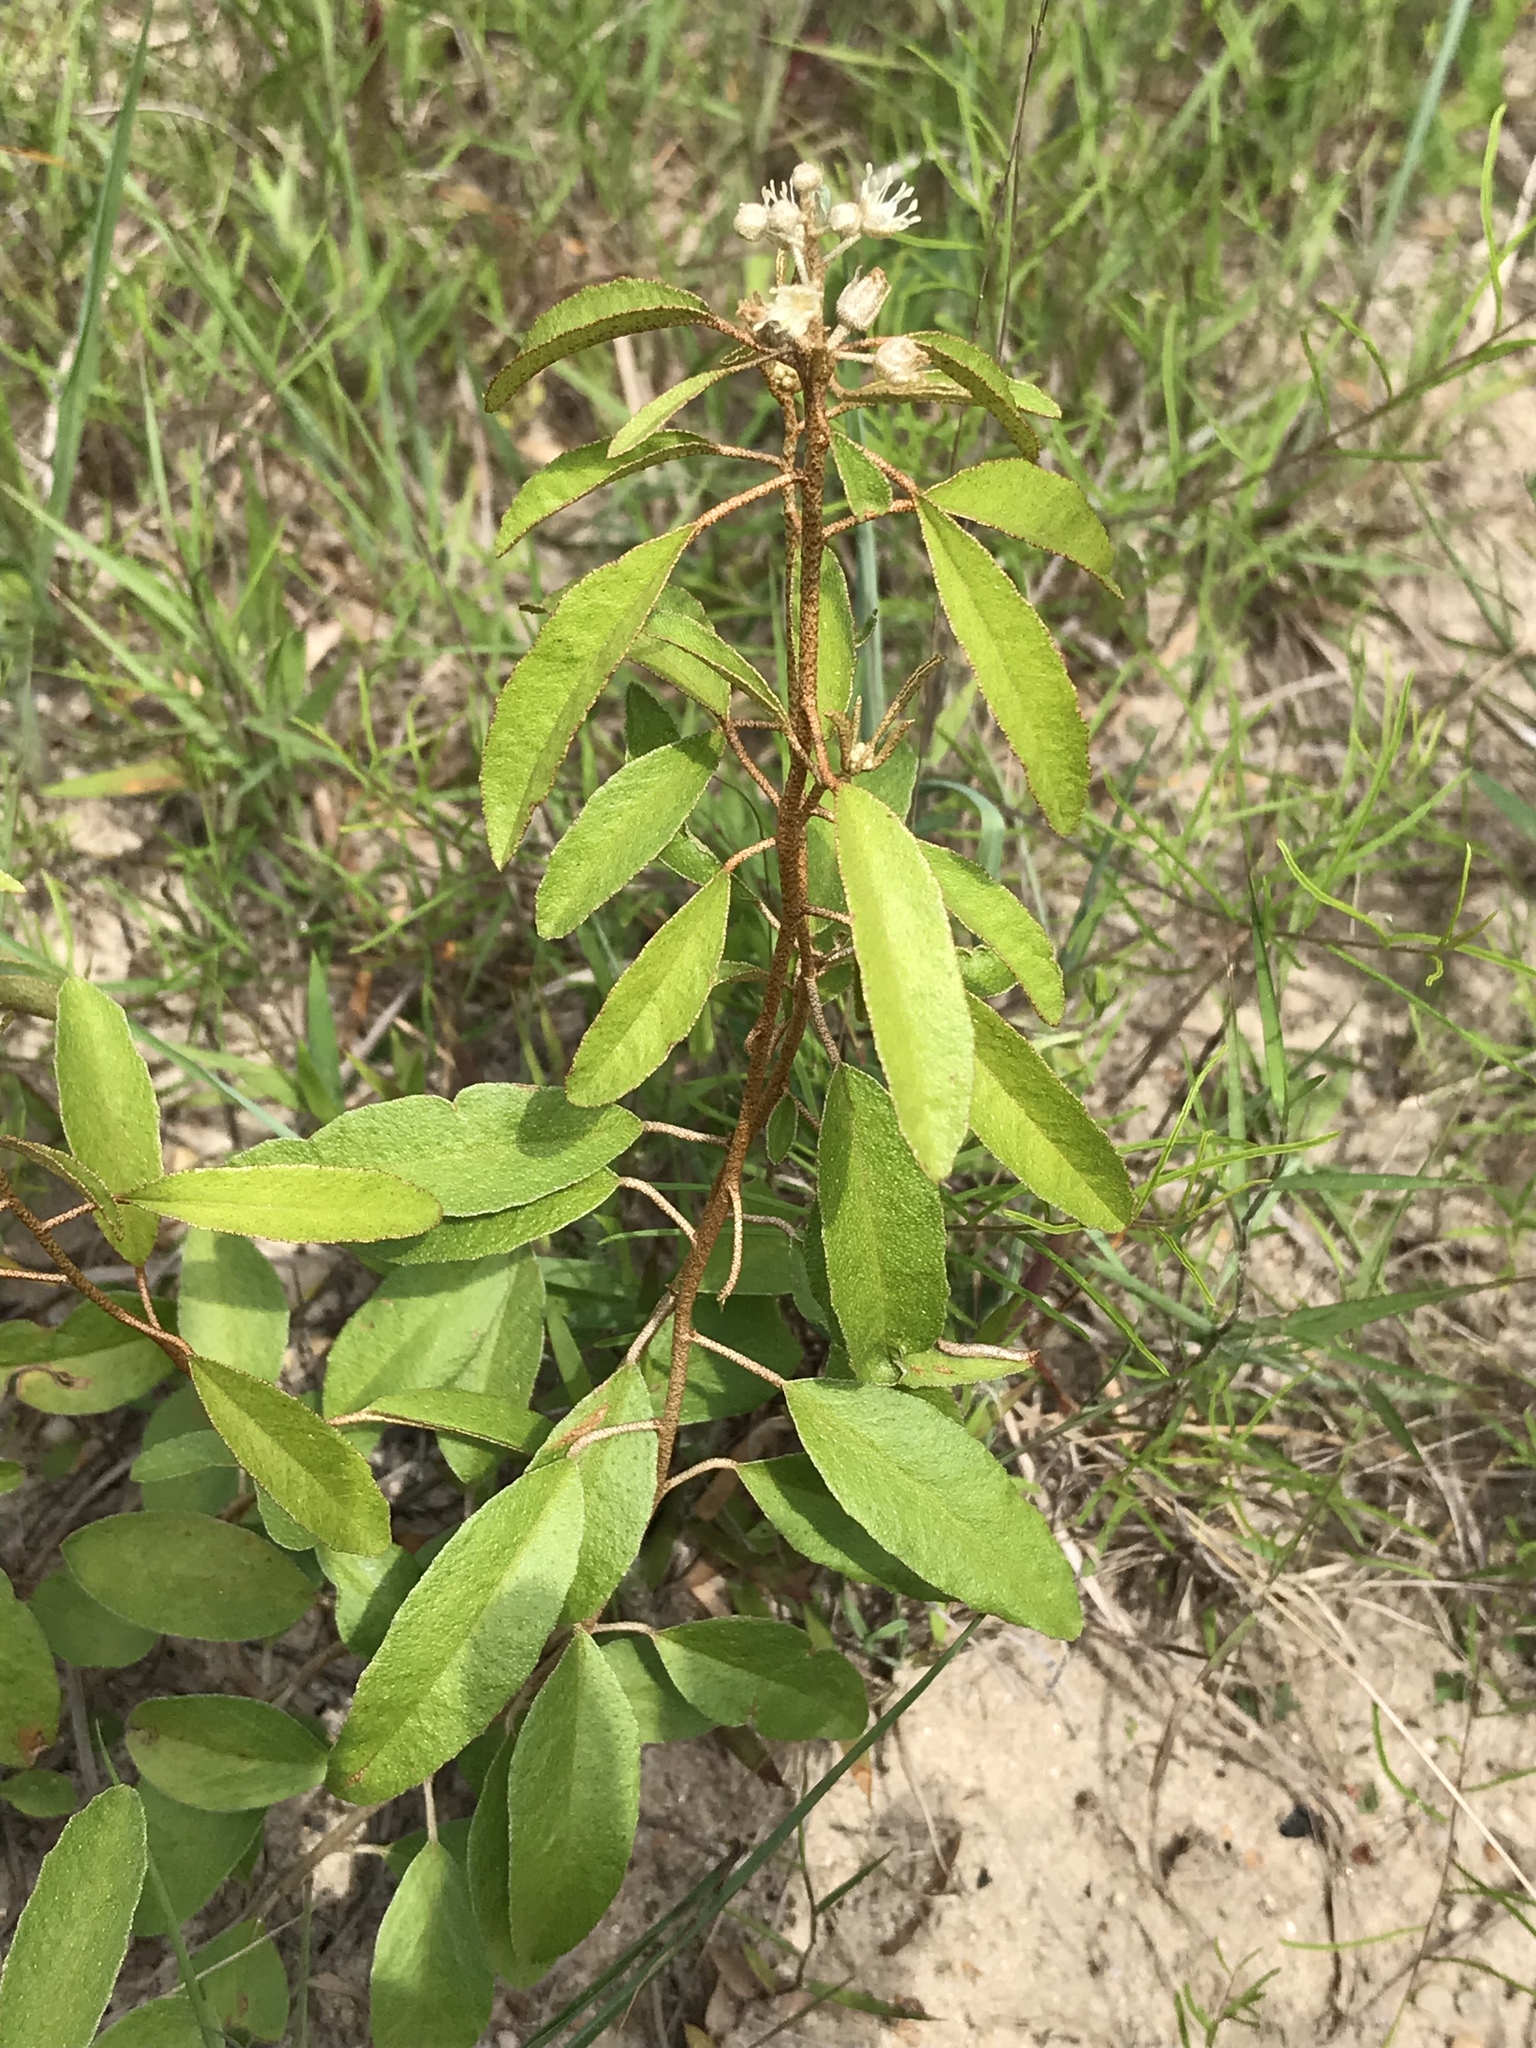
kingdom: Plantae
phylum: Tracheophyta
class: Magnoliopsida
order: Malpighiales
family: Euphorbiaceae
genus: Croton
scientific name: Croton argyranthemus
